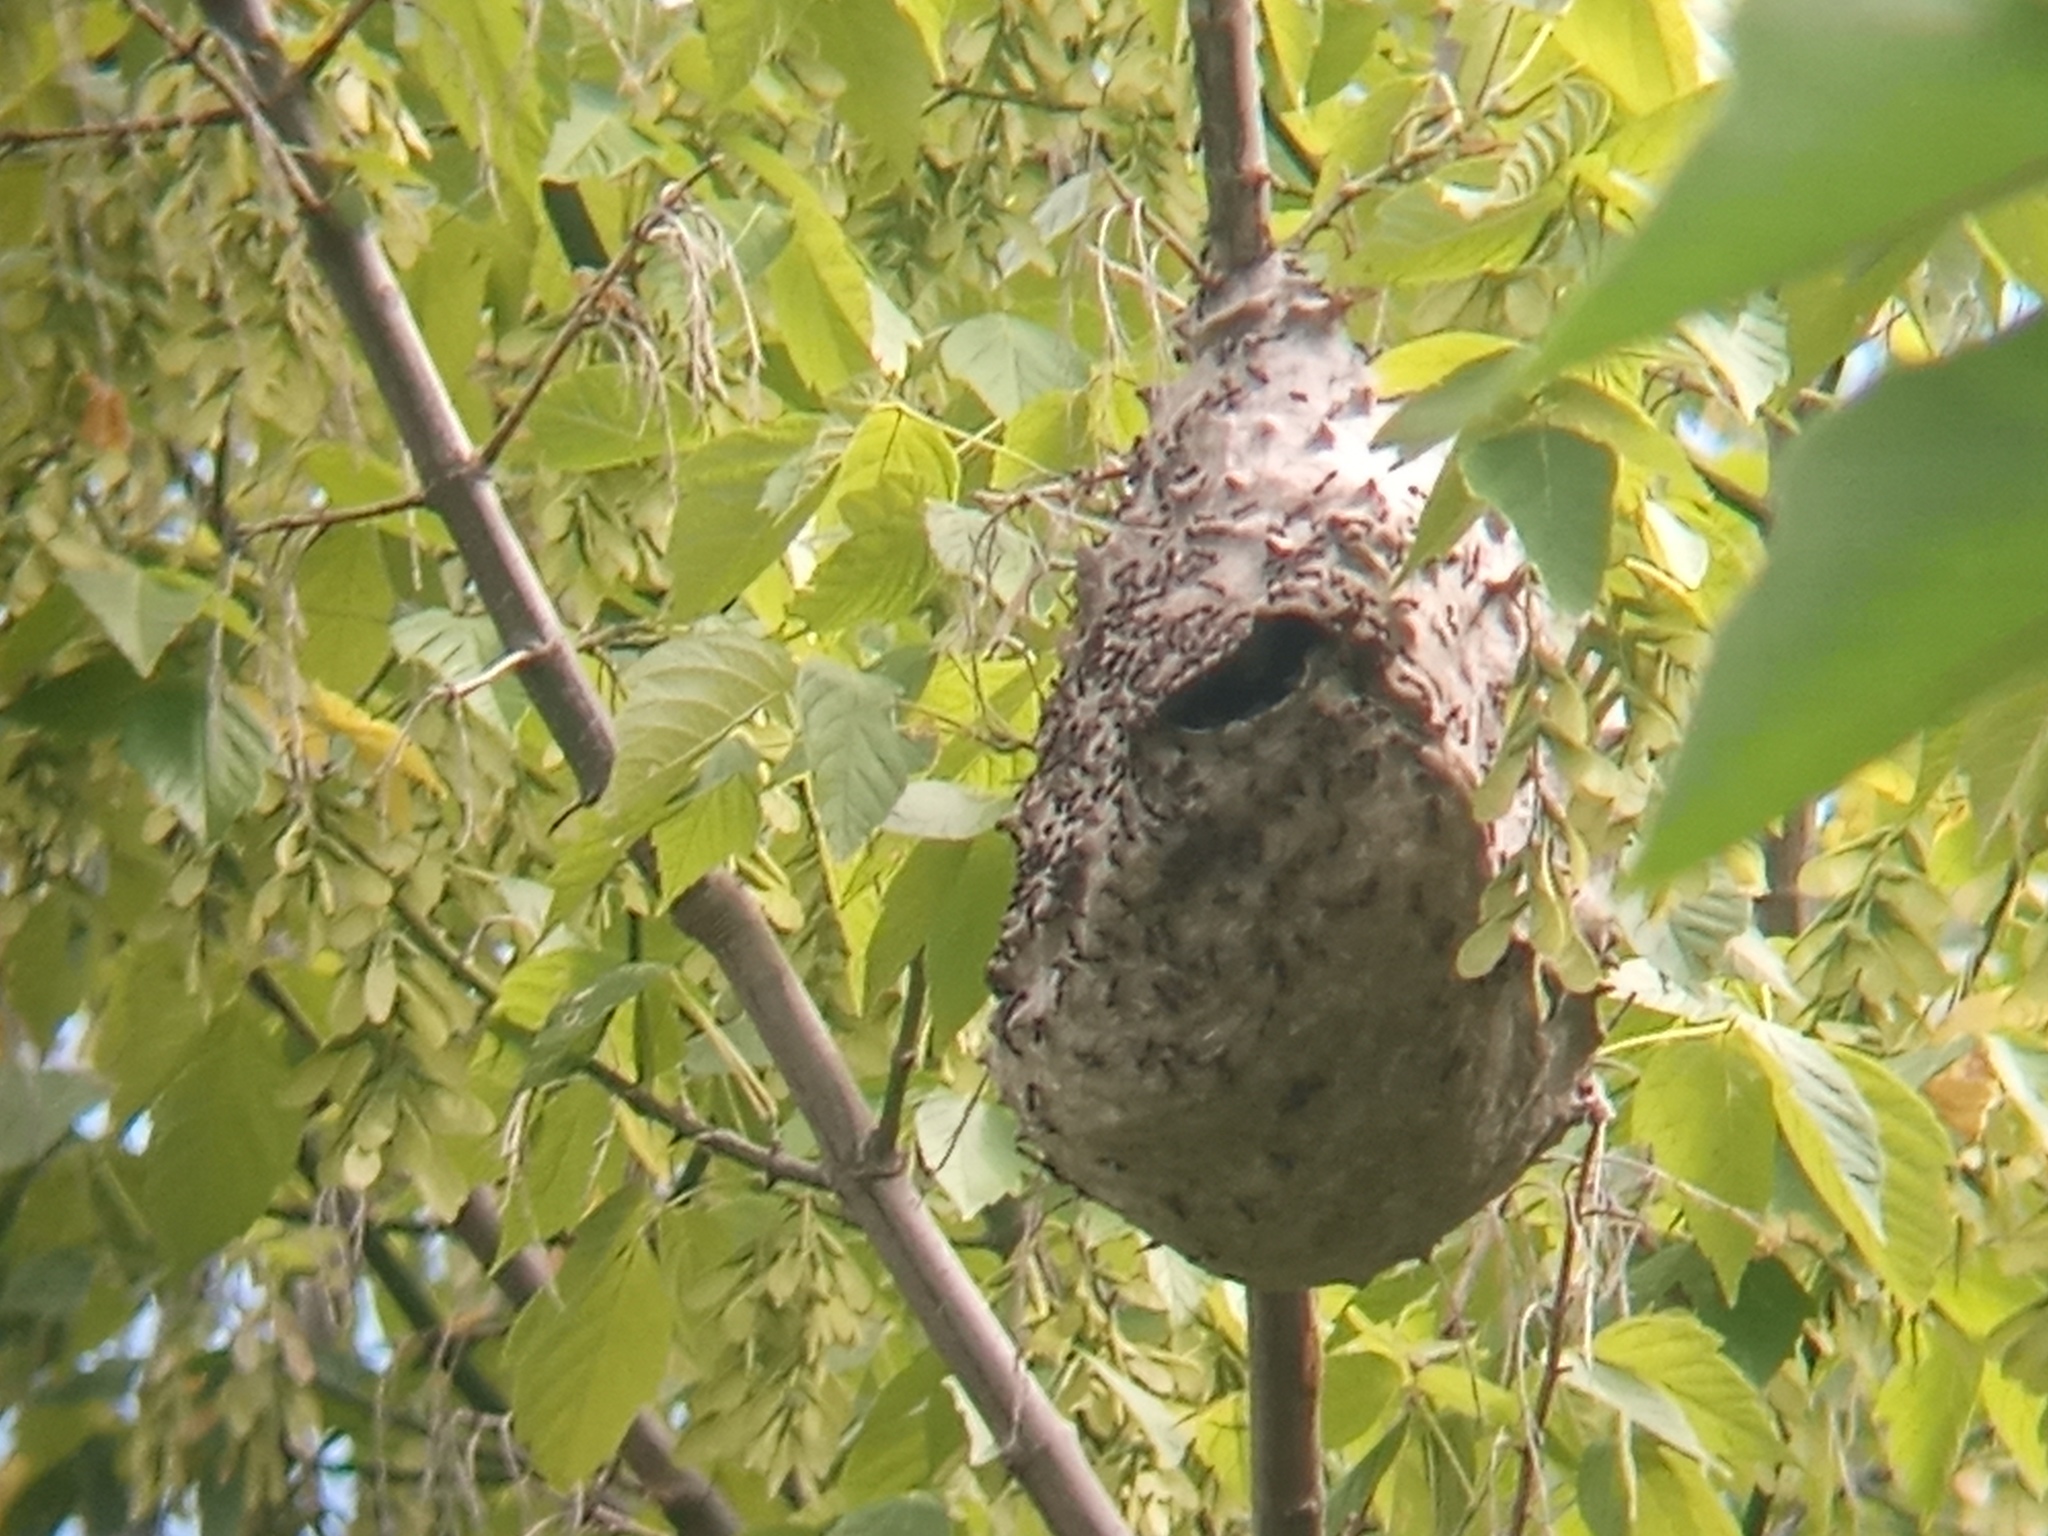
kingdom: Animalia
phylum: Arthropoda
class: Insecta
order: Hymenoptera
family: Eumenidae
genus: Polybia
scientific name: Polybia scutellaris
